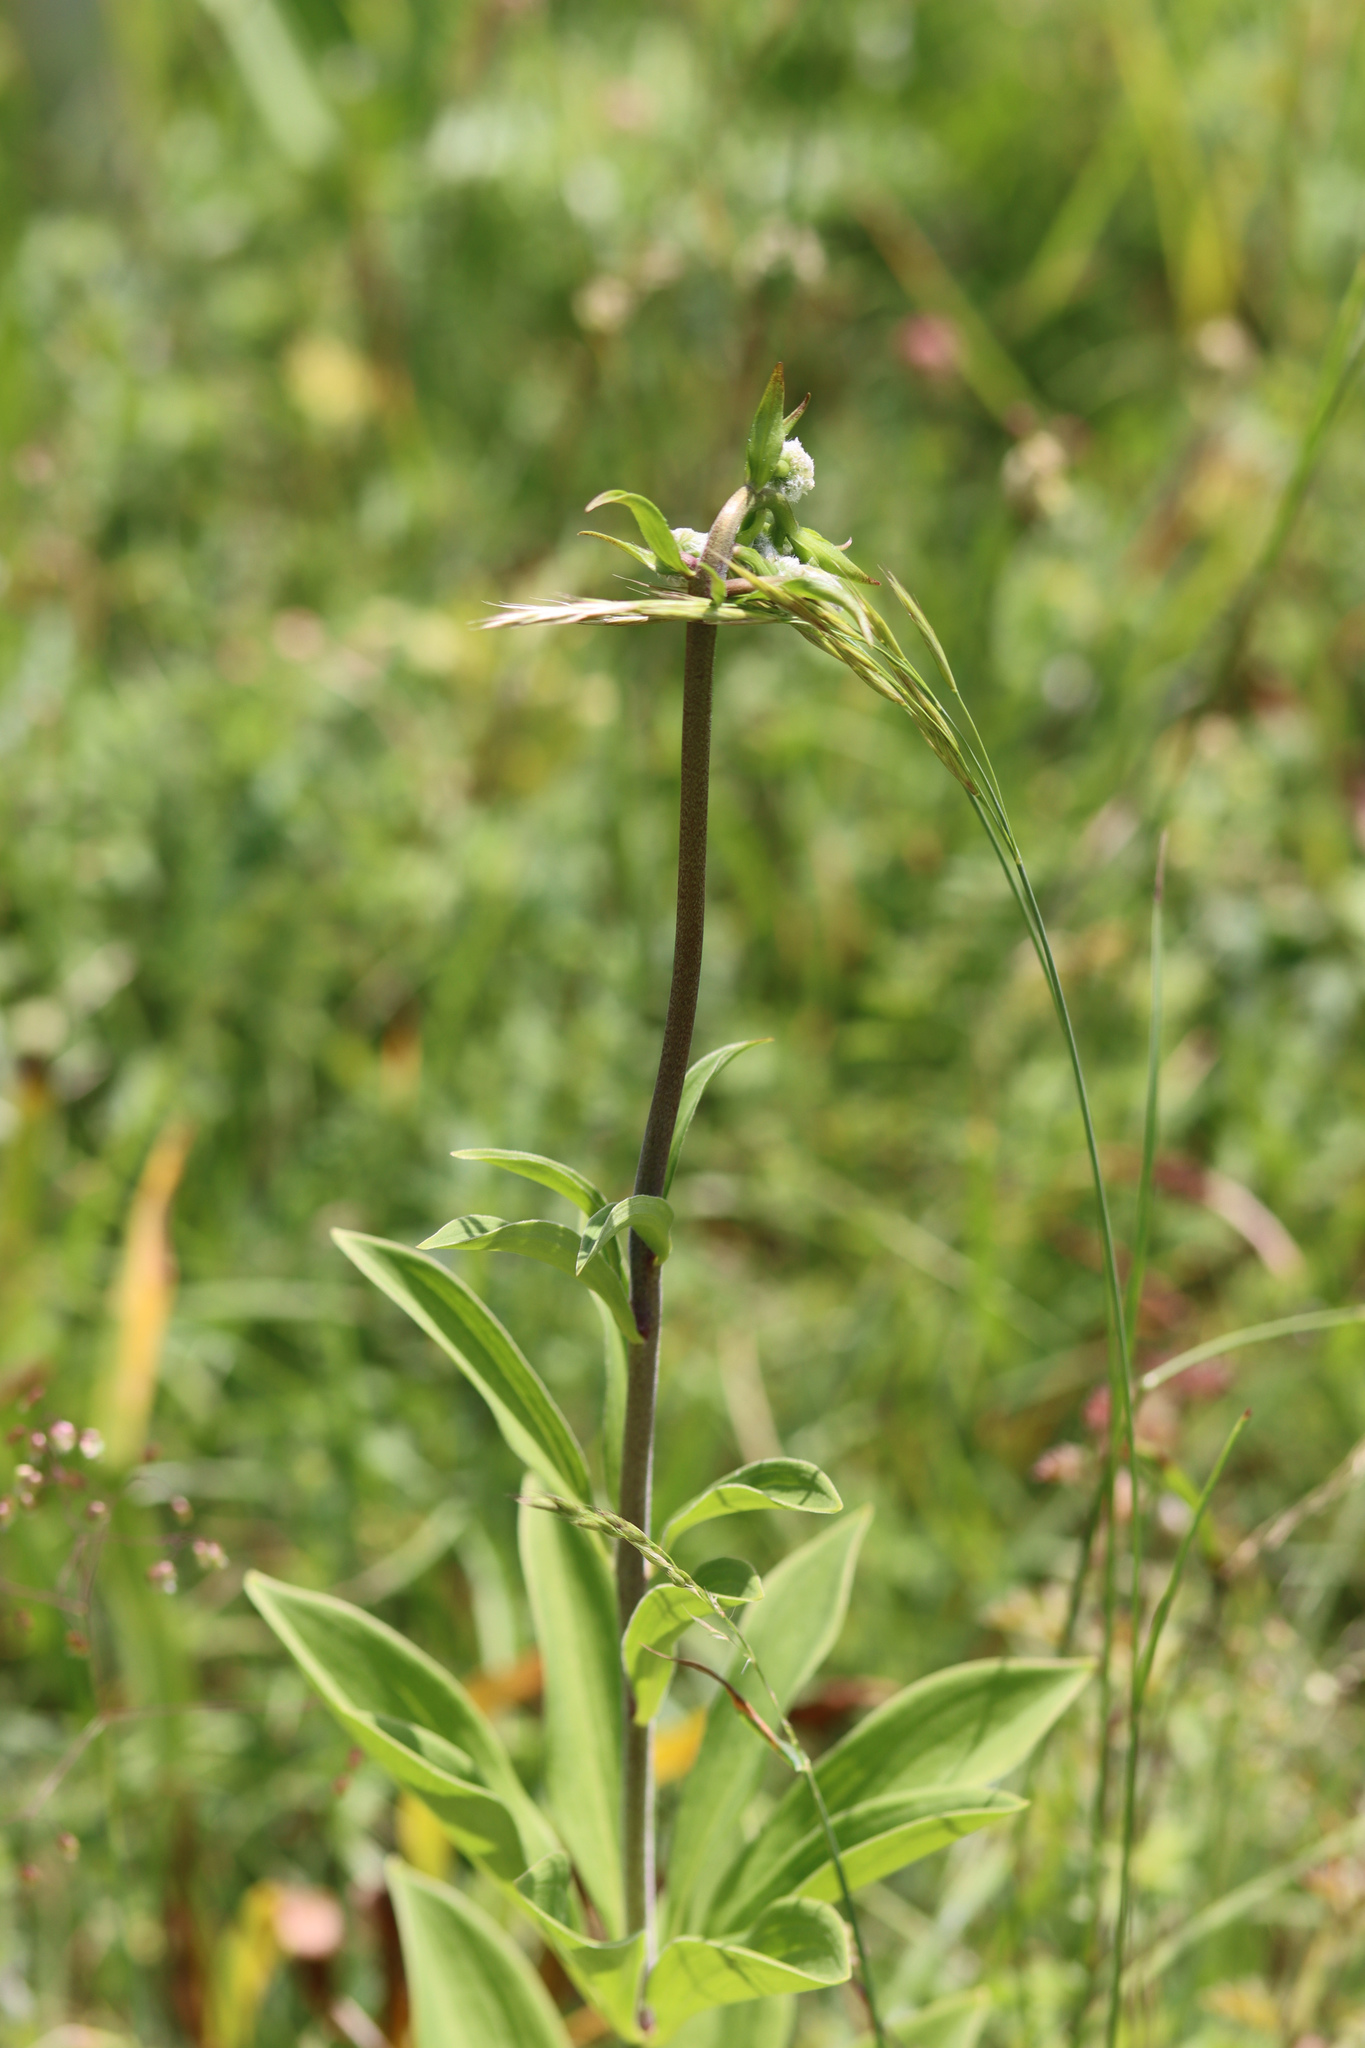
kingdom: Plantae
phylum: Tracheophyta
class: Liliopsida
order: Liliales
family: Liliaceae
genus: Lilium
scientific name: Lilium martagon
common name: Martagon lily
